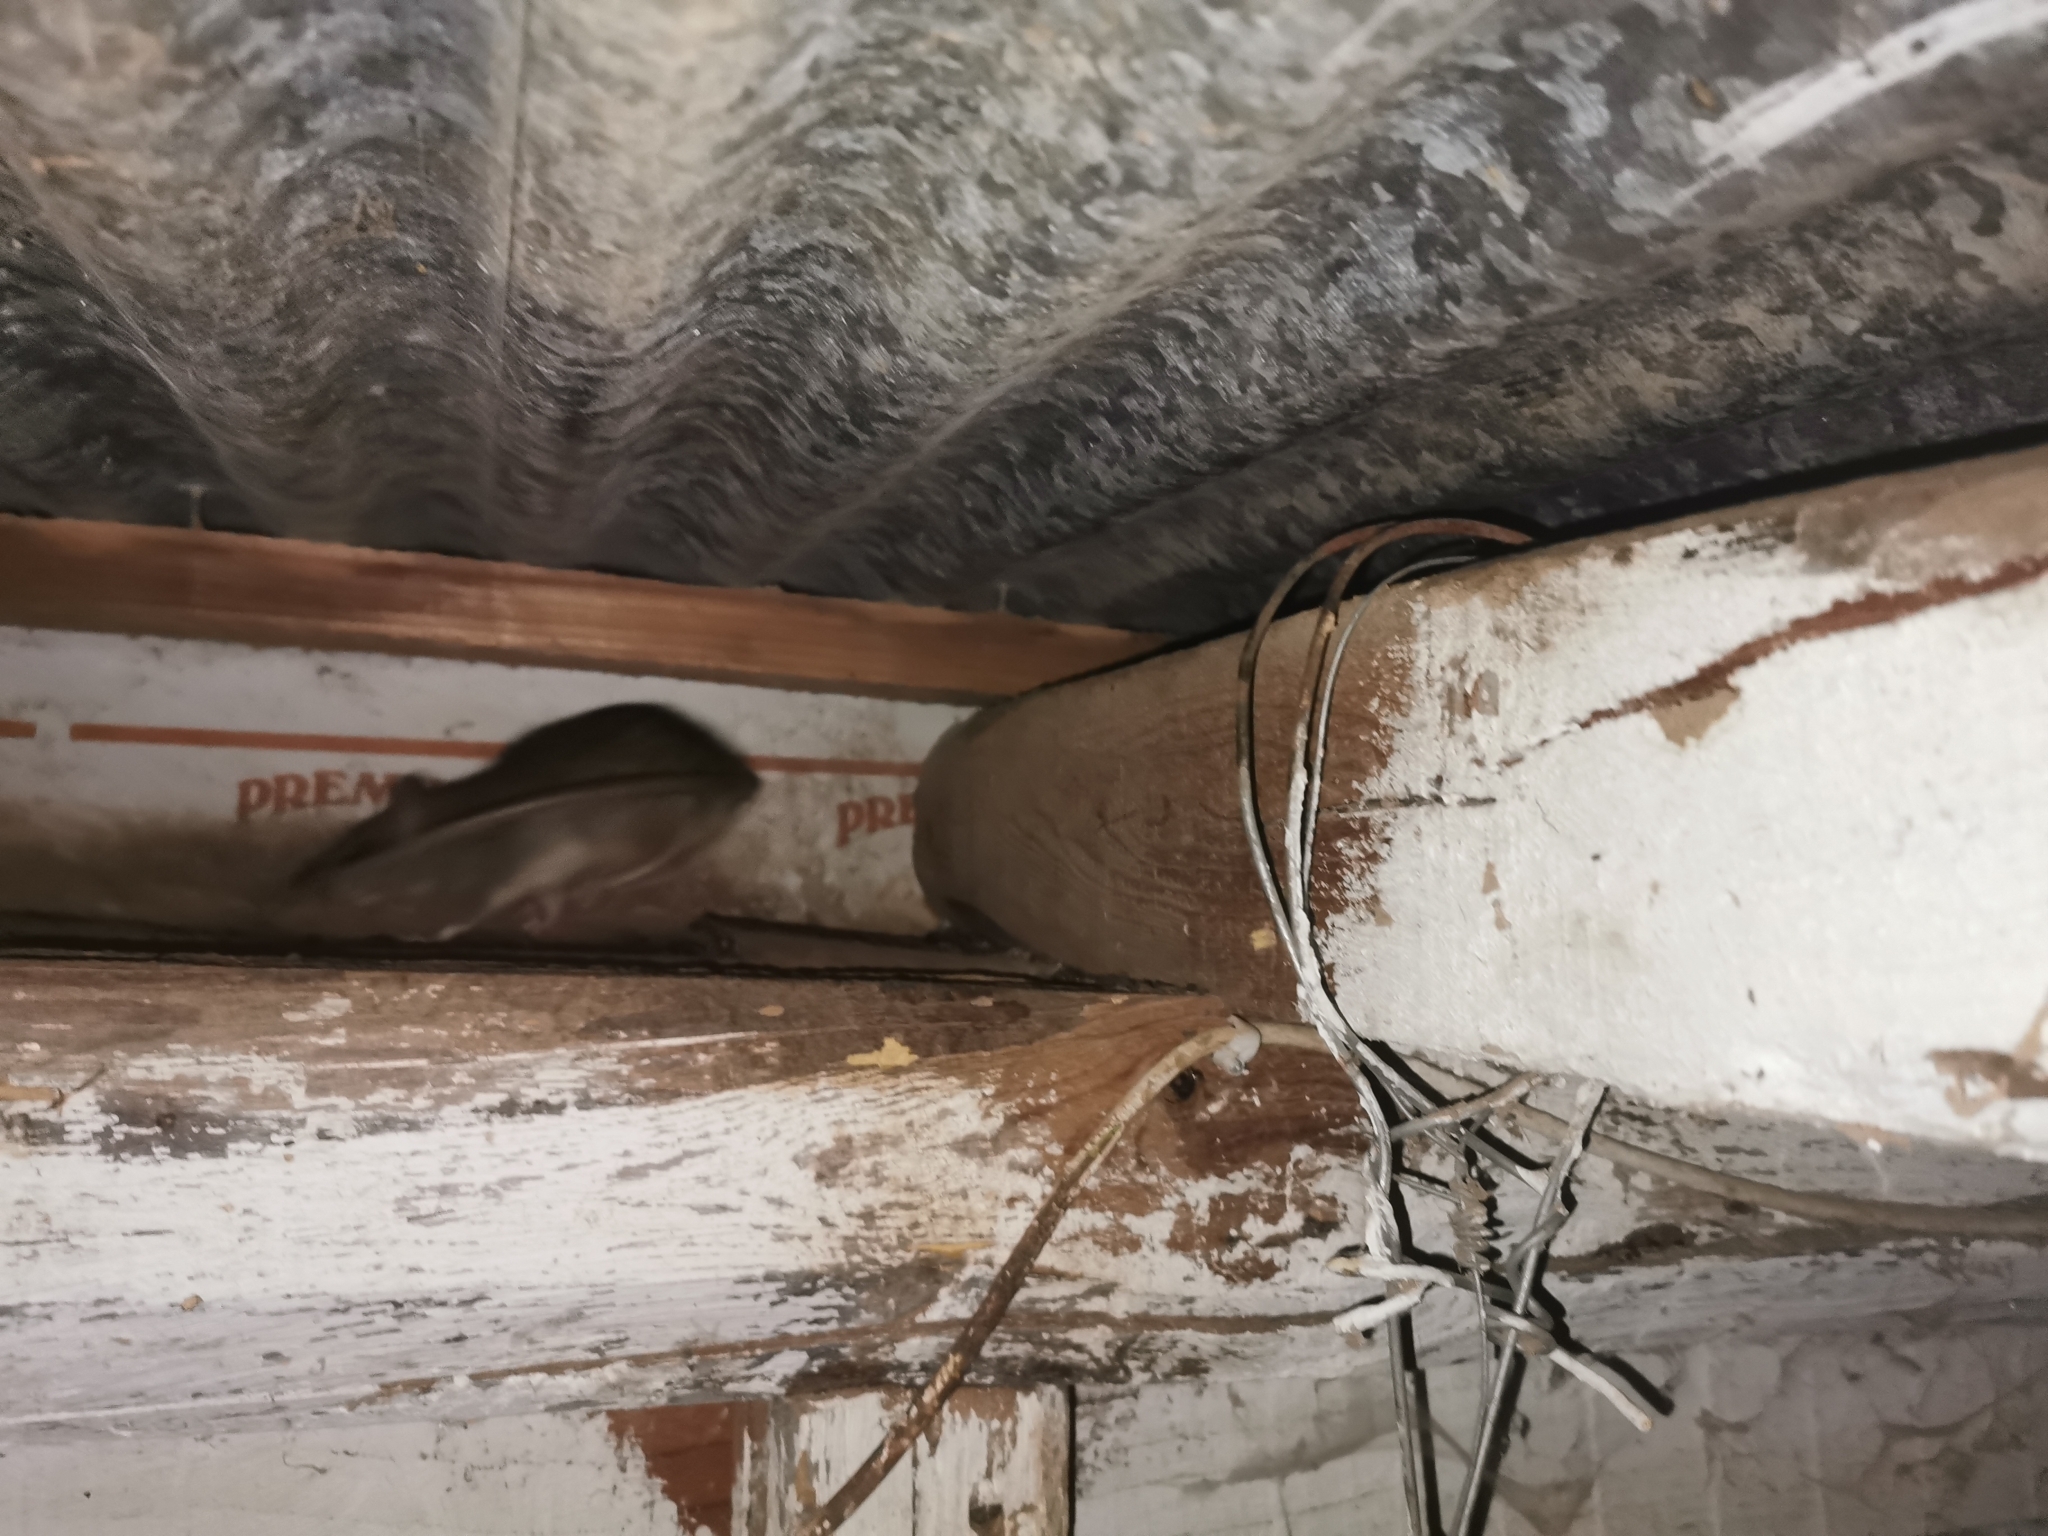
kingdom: Animalia
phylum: Chordata
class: Mammalia
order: Rodentia
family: Muridae
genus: Rattus
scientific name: Rattus rattus
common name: Black rat
